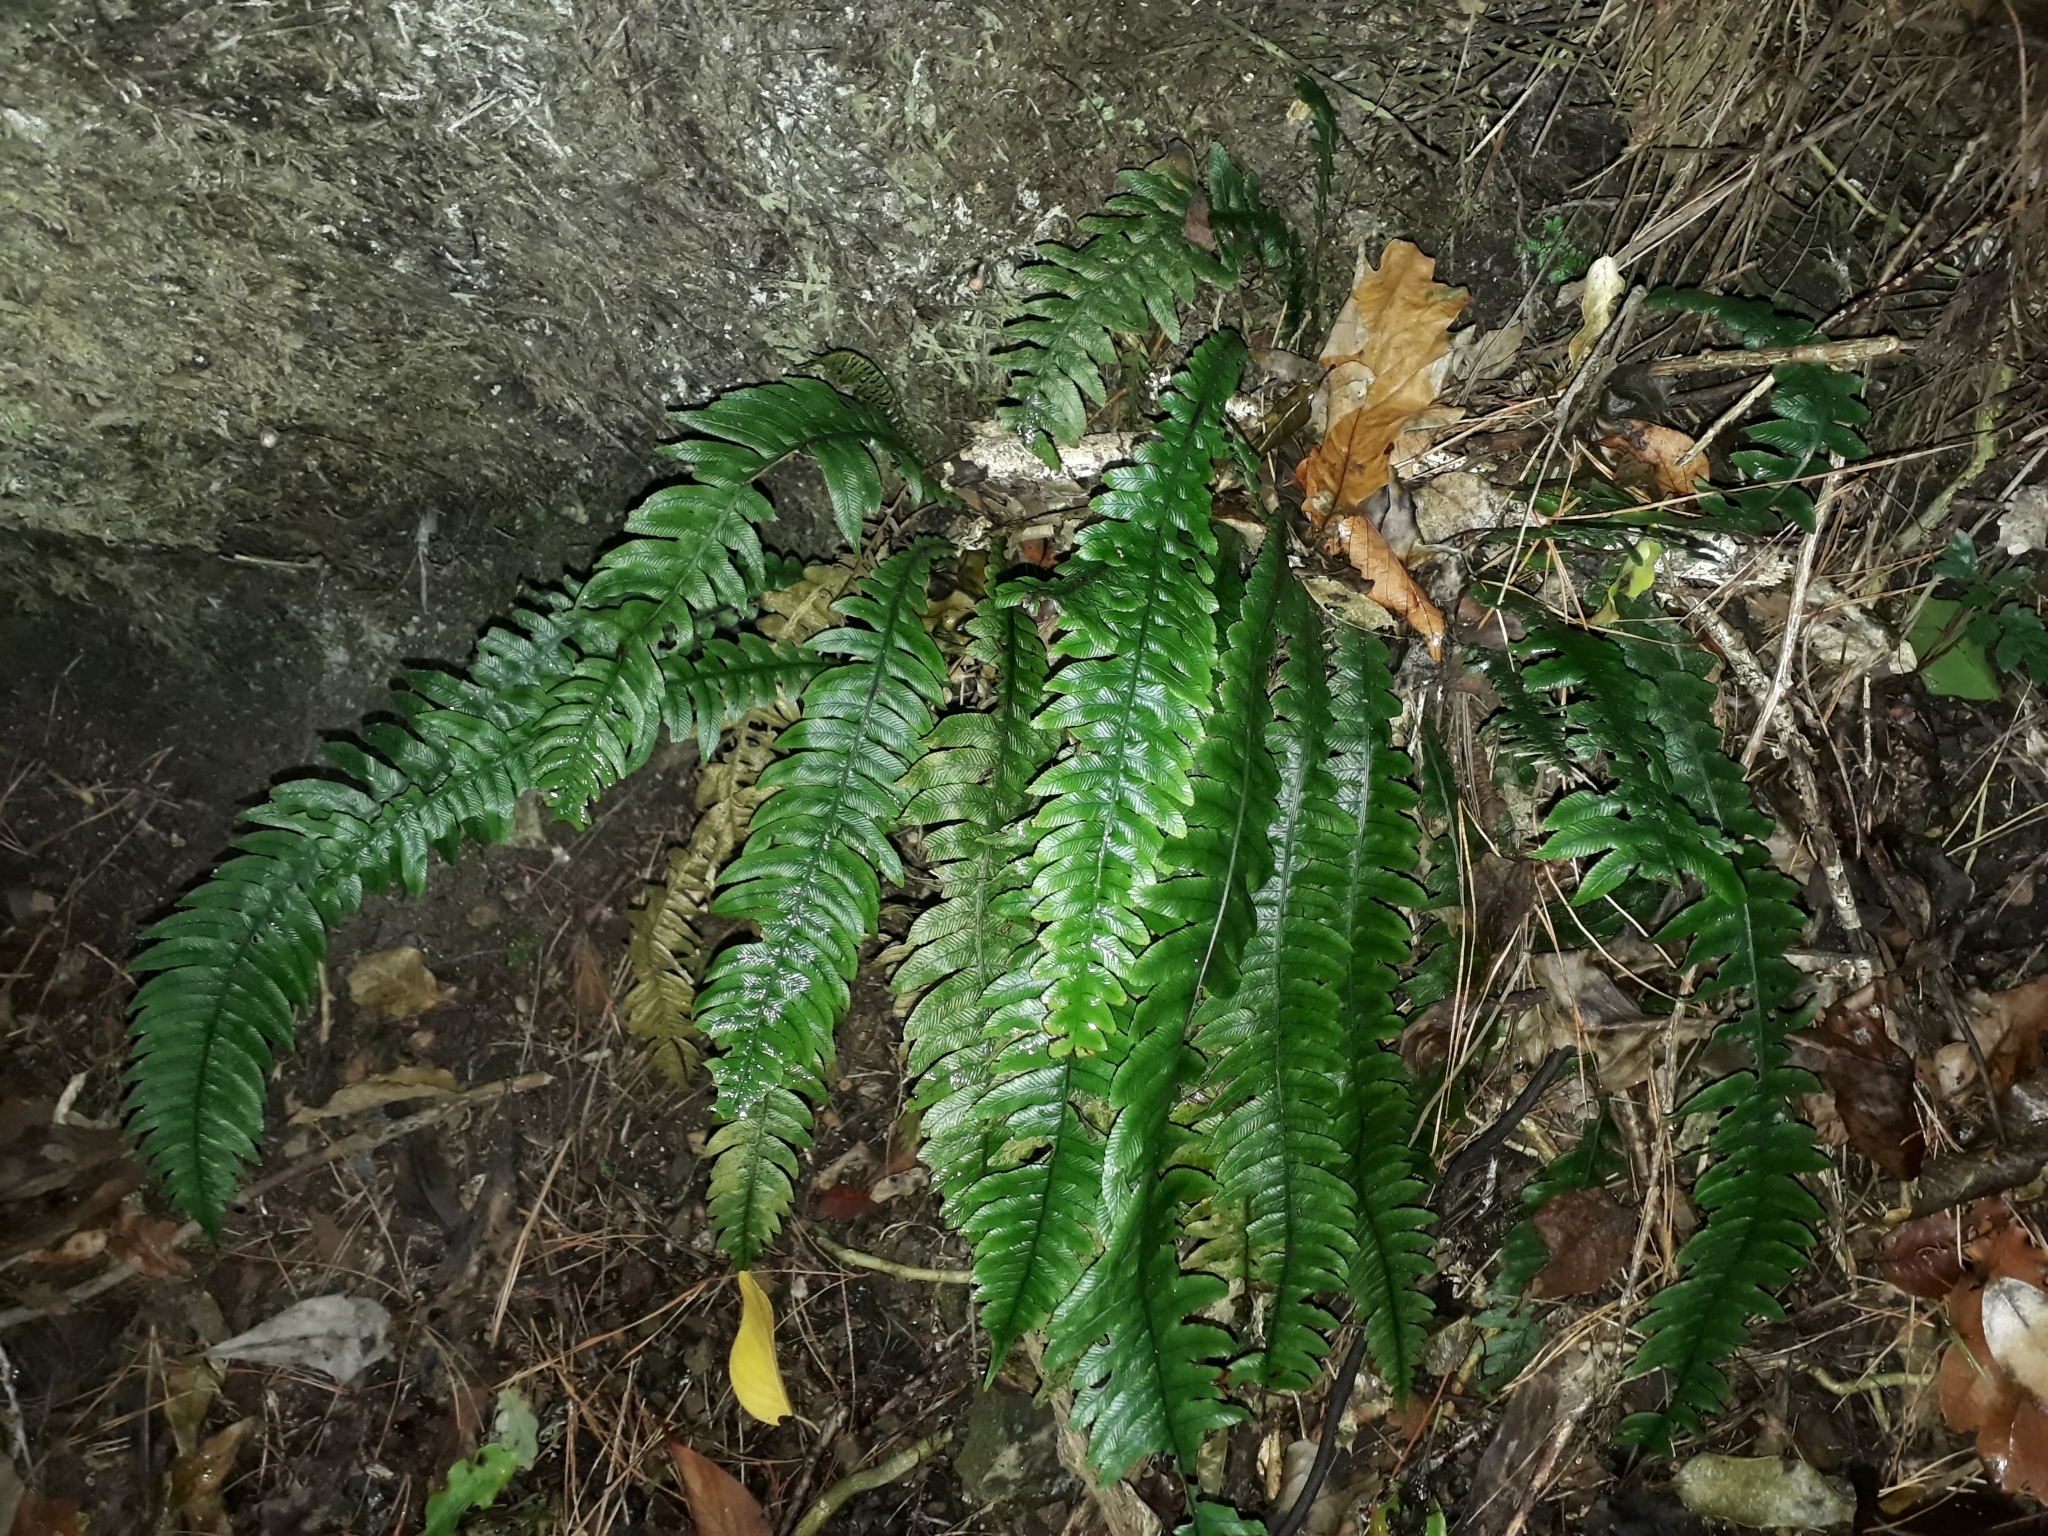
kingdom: Plantae
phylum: Tracheophyta
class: Polypodiopsida
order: Polypodiales
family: Blechnaceae
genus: Austroblechnum
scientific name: Austroblechnum lanceolatum
